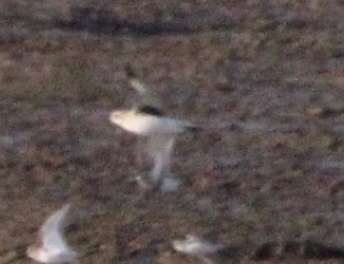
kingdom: Animalia
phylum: Chordata
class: Aves
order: Charadriiformes
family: Charadriidae
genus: Pluvialis
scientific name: Pluvialis squatarola
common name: Grey plover
